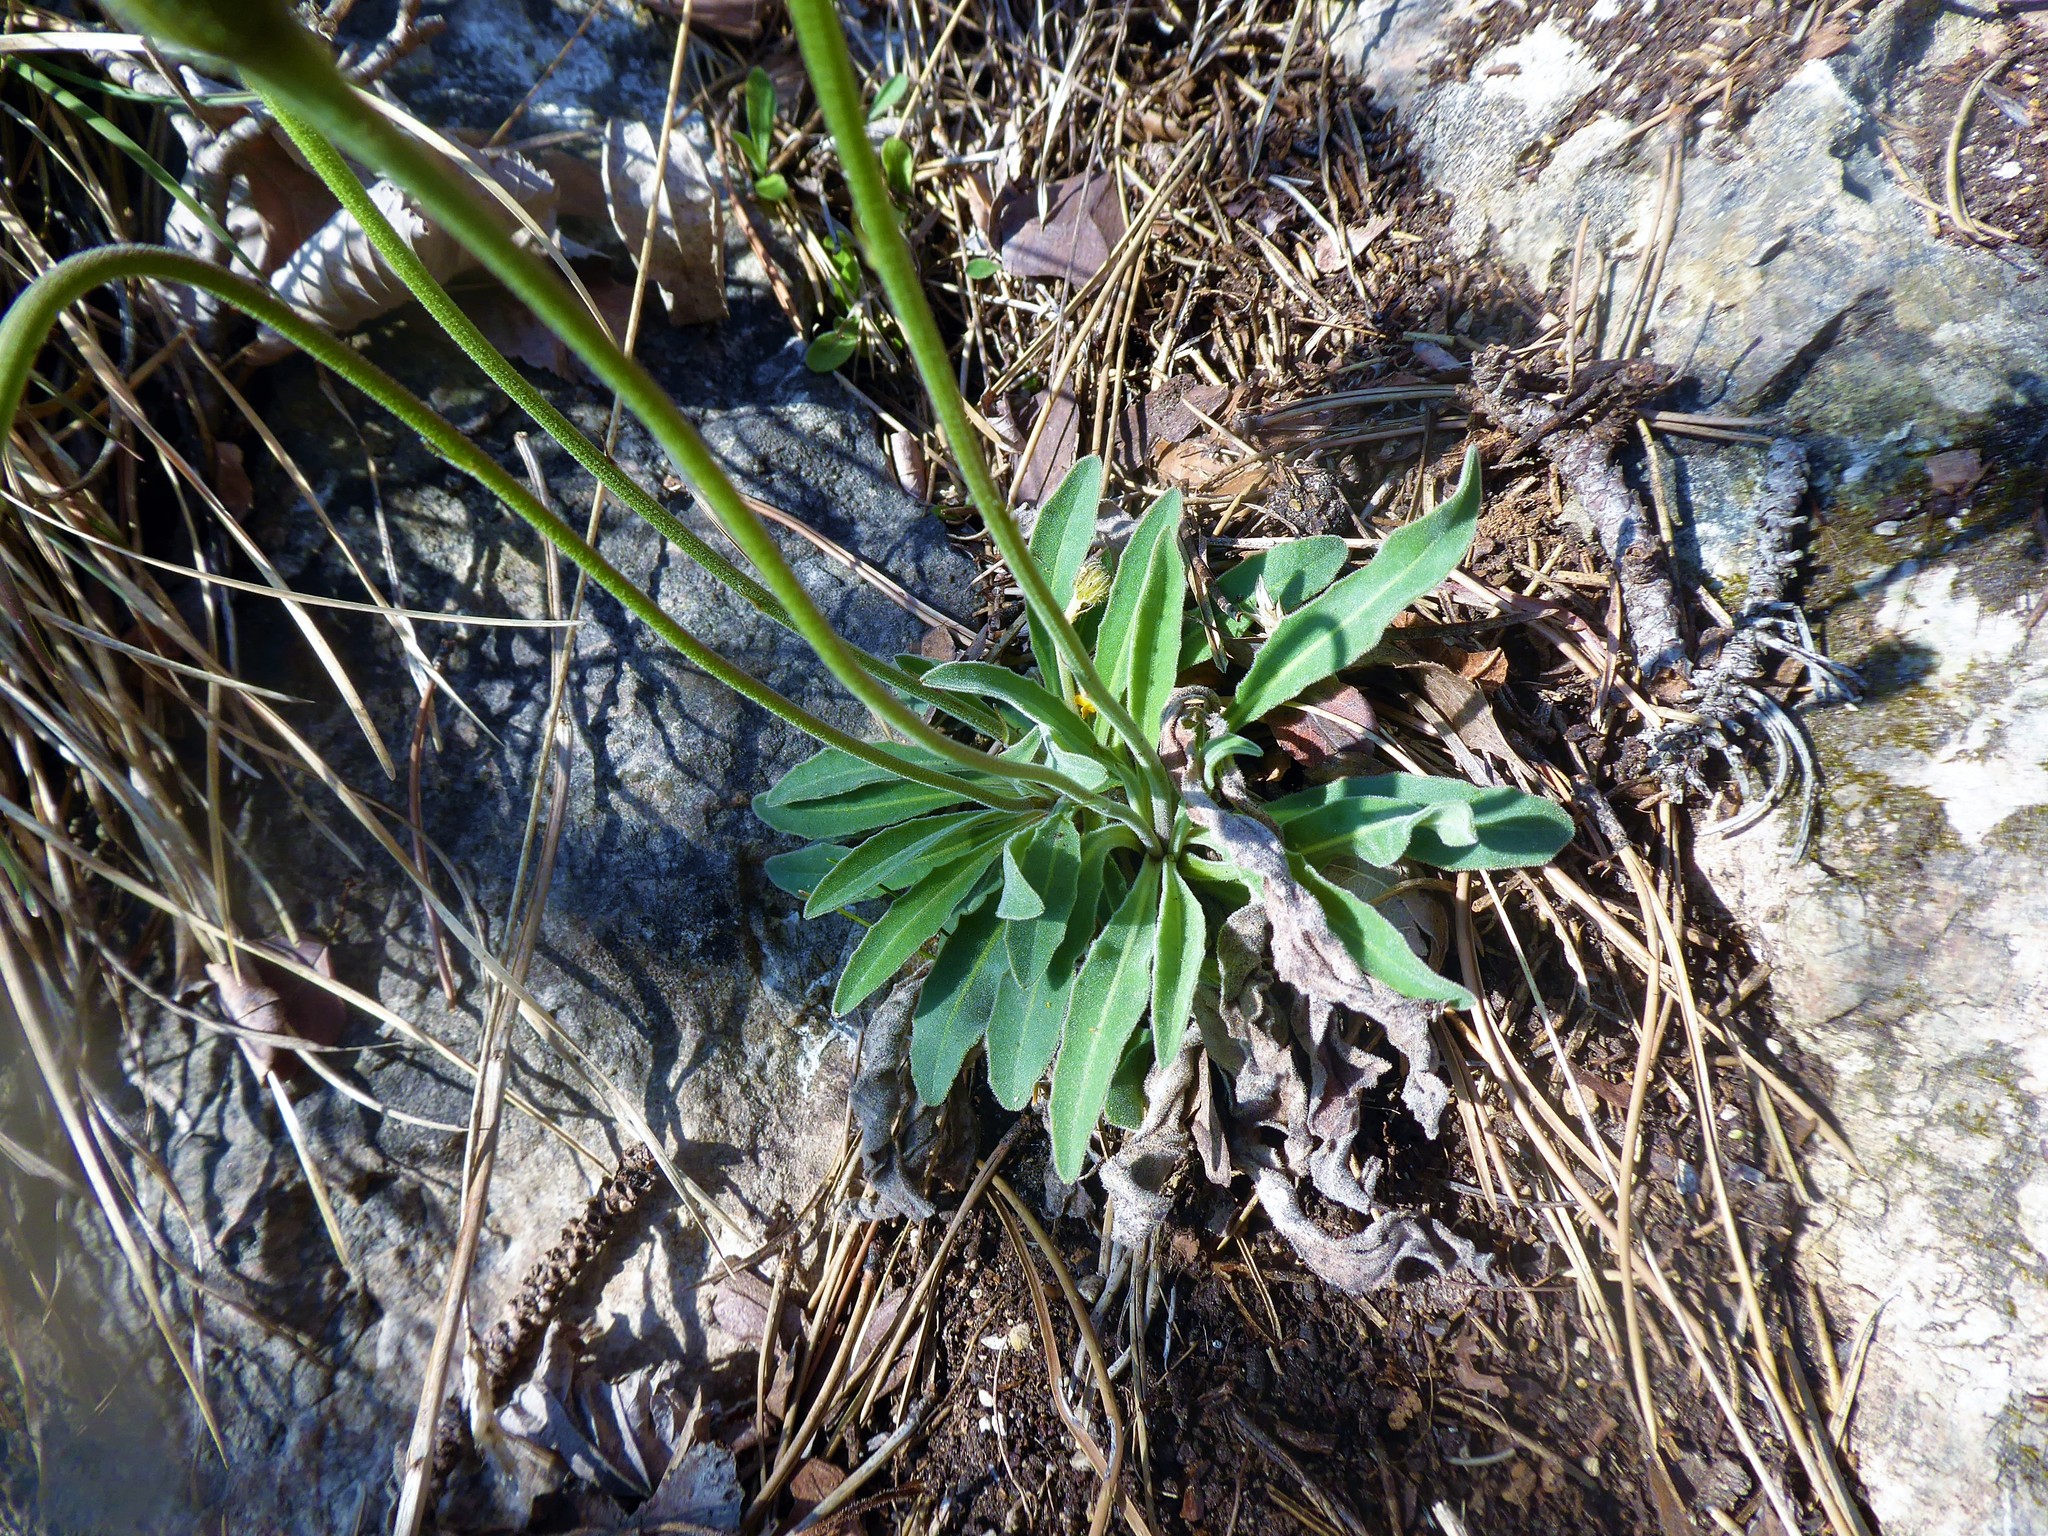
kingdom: Plantae
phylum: Tracheophyta
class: Magnoliopsida
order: Asterales
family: Asteraceae
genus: Leontodon
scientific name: Leontodon incanus
